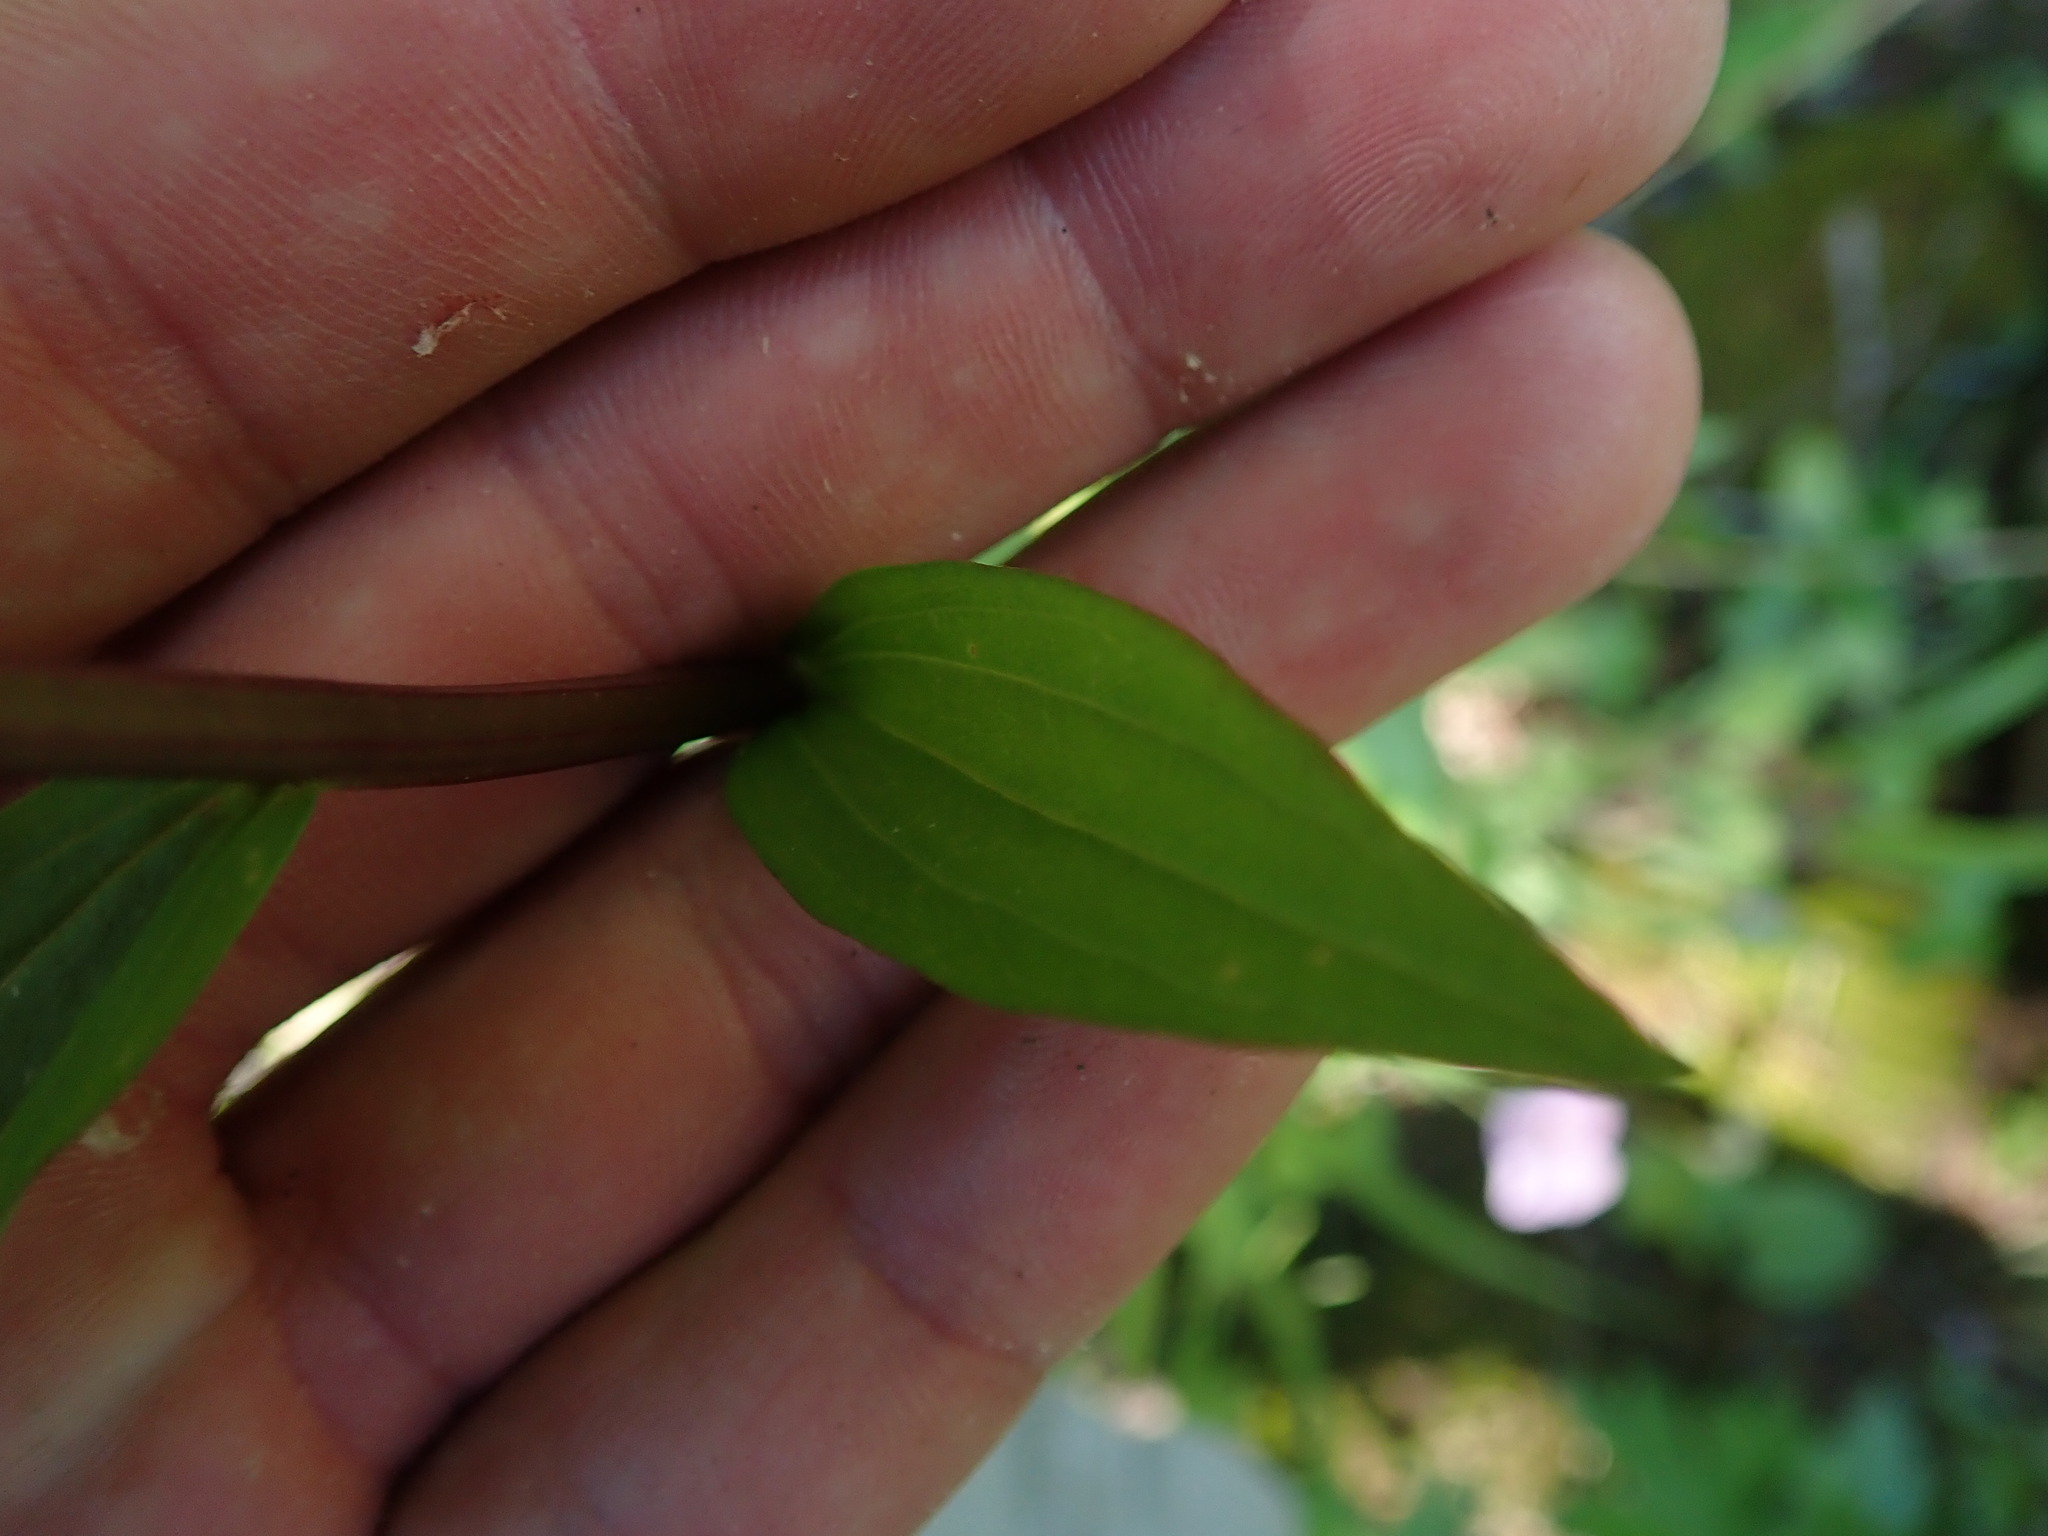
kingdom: Plantae
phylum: Tracheophyta
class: Magnoliopsida
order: Lamiales
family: Orobanchaceae
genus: Castilleja
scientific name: Castilleja miniata
